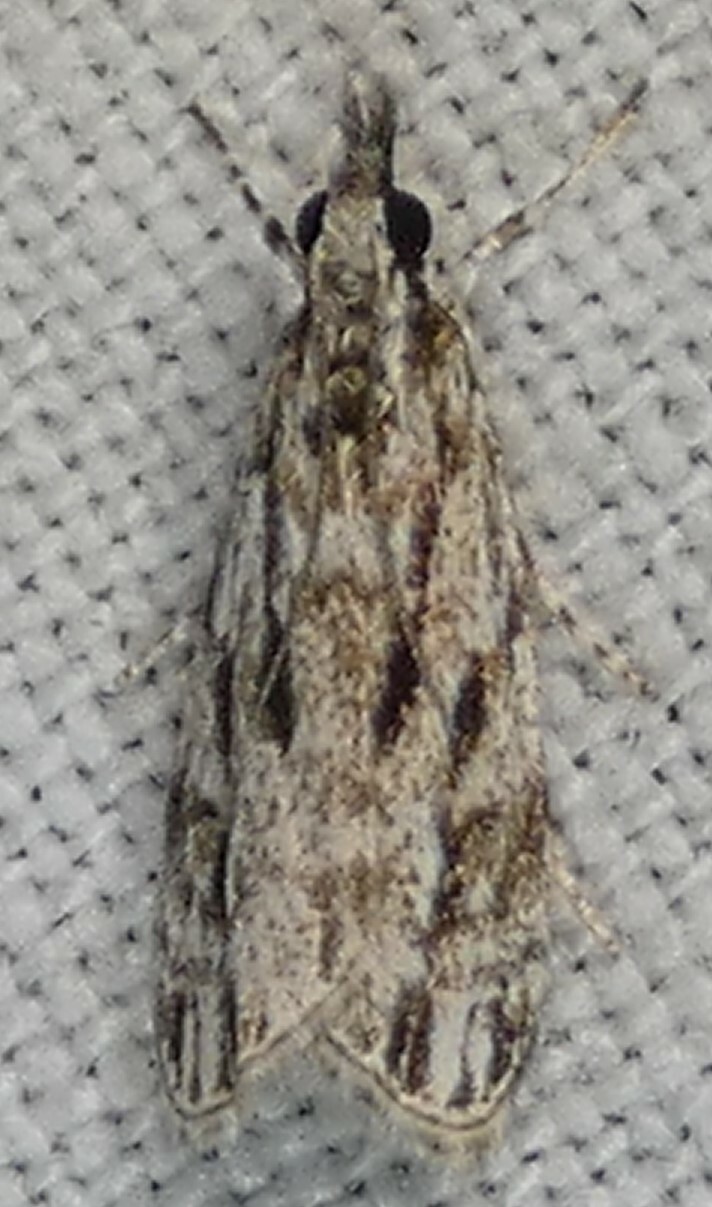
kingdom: Animalia
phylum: Arthropoda
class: Insecta
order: Lepidoptera
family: Crambidae
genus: Eudonia
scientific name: Eudonia strigalis
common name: Striped eudonia moth
